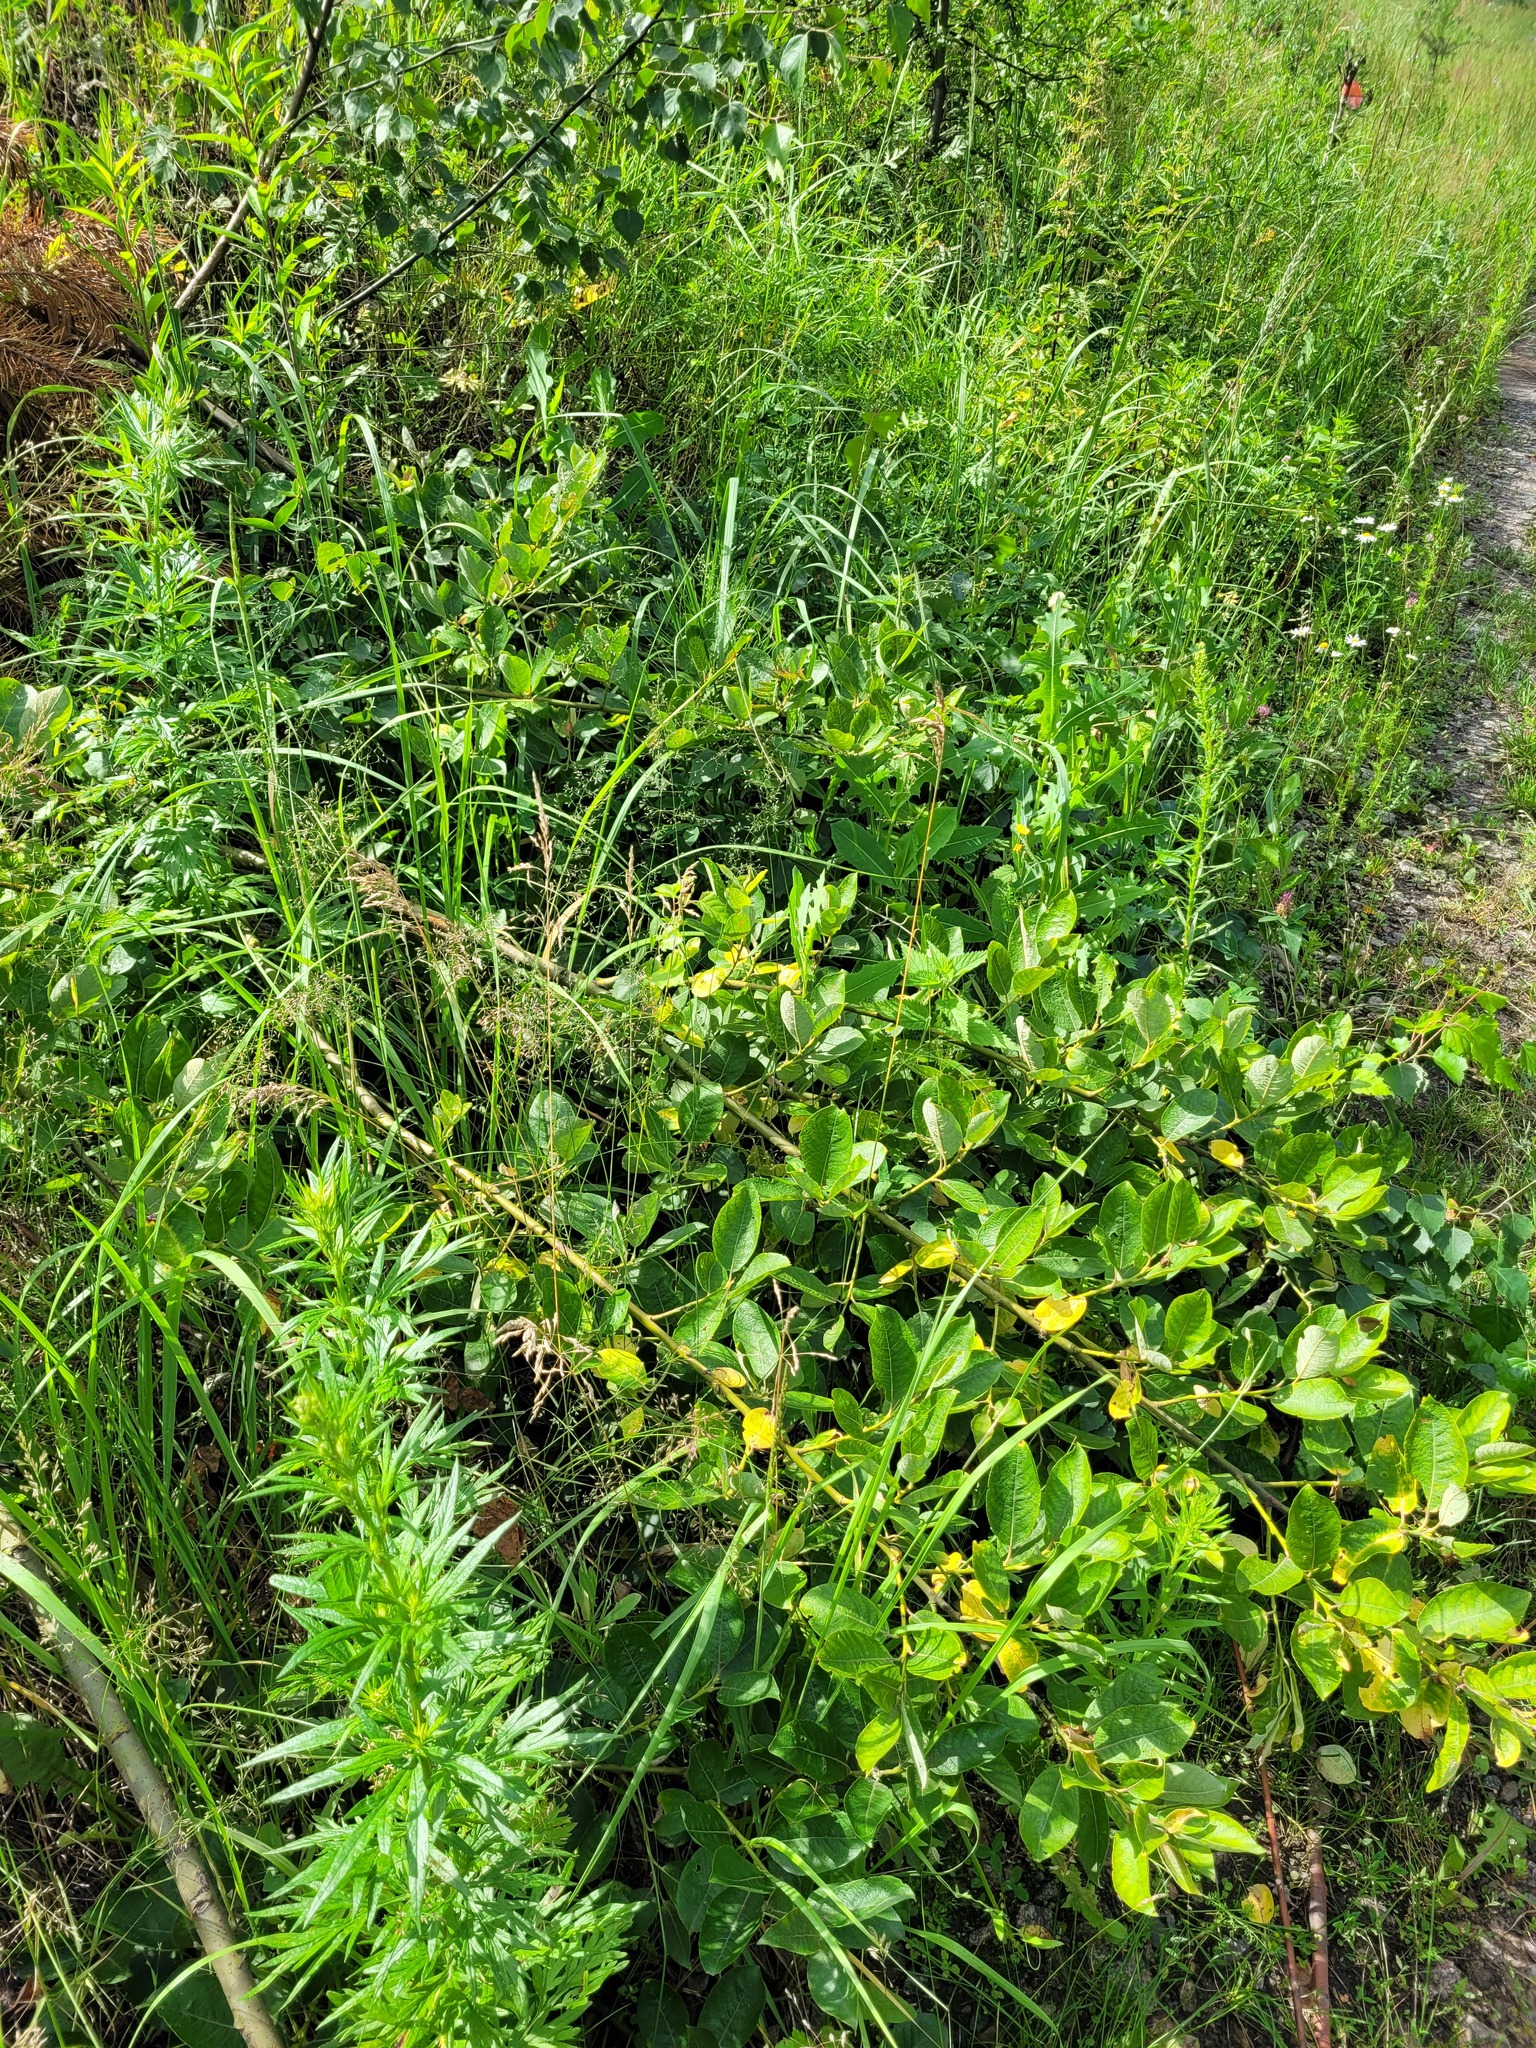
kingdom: Plantae
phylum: Tracheophyta
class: Magnoliopsida
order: Malpighiales
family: Salicaceae
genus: Salix
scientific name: Salix caprea
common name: Goat willow
